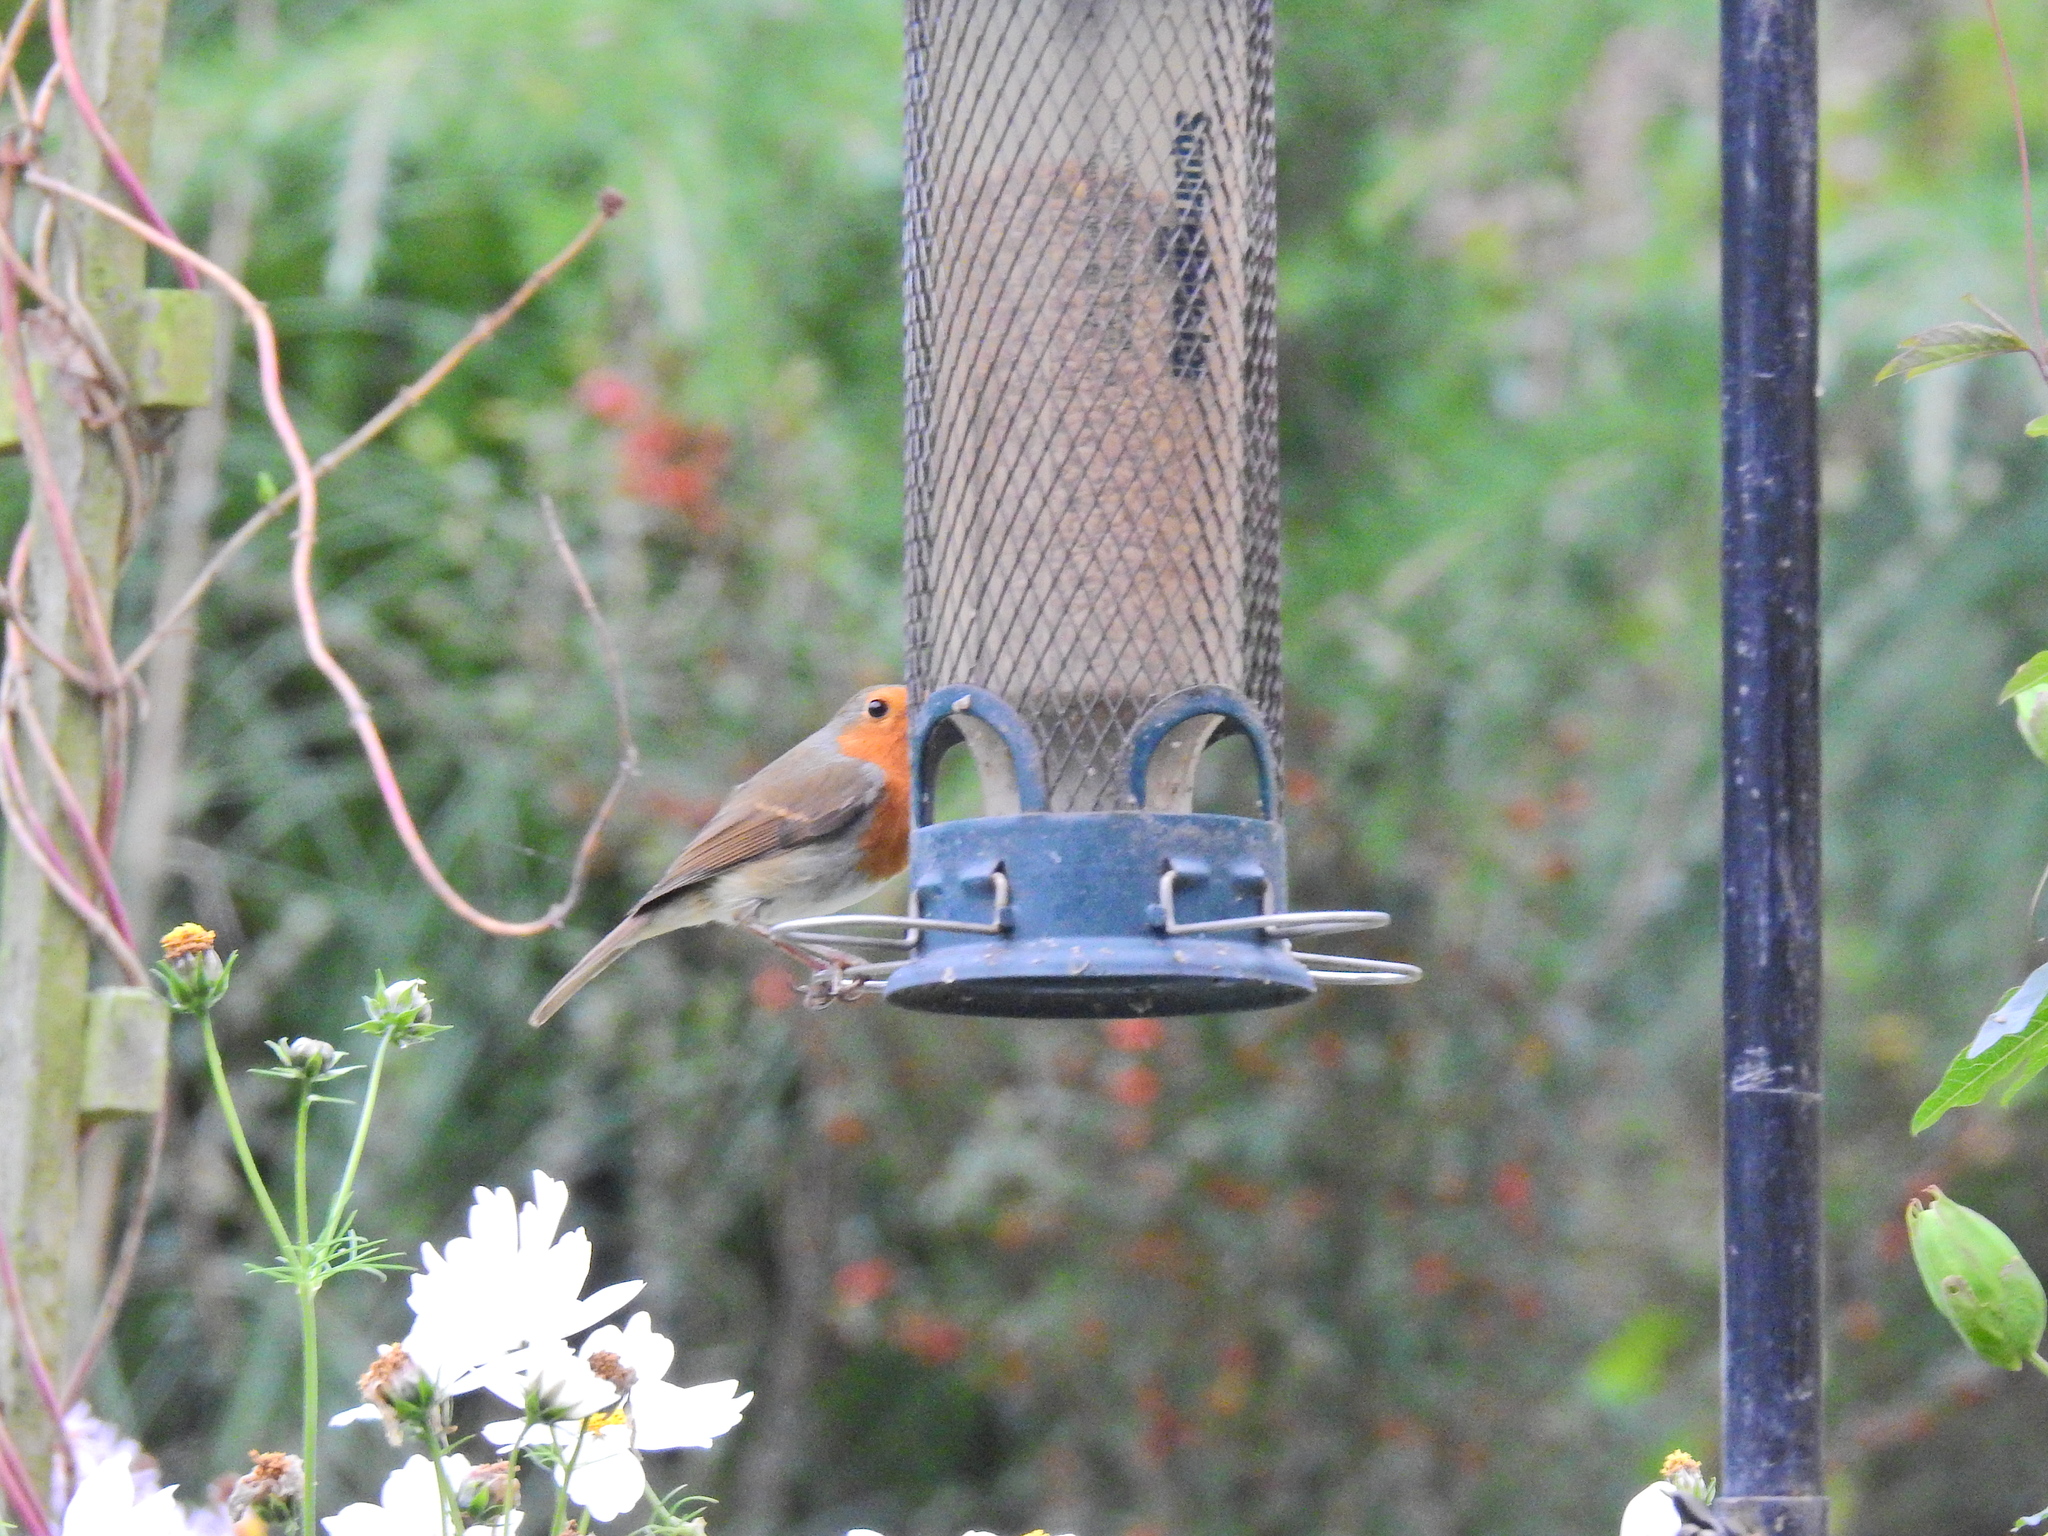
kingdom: Animalia
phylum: Chordata
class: Aves
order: Passeriformes
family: Muscicapidae
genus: Erithacus
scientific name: Erithacus rubecula
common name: European robin
